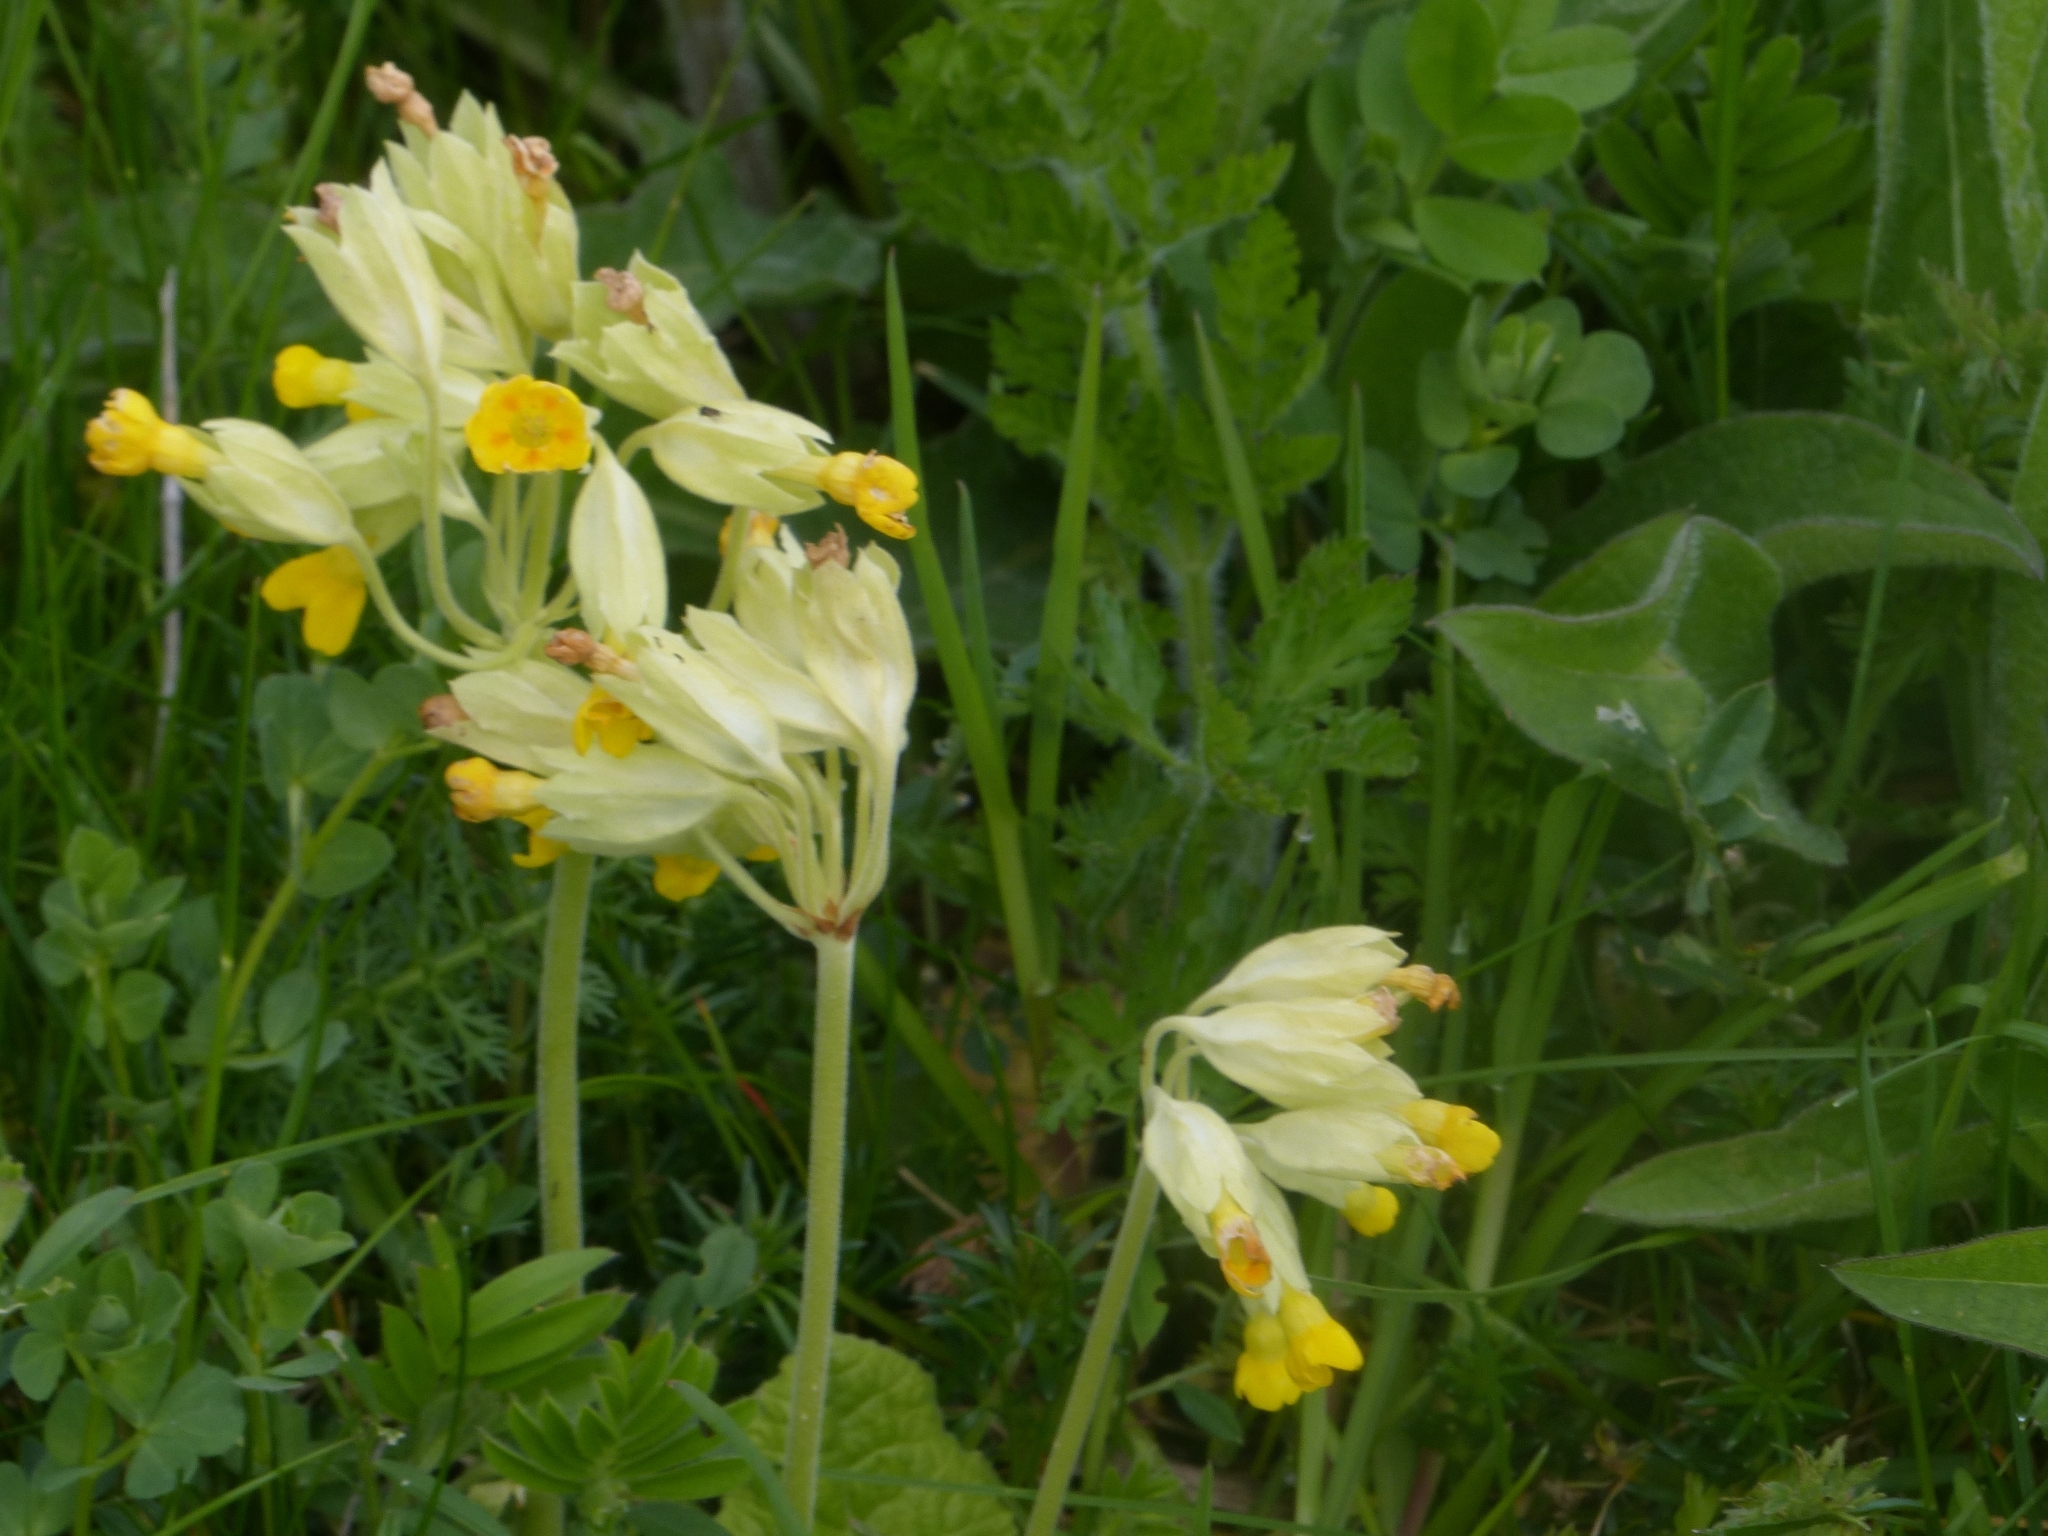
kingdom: Plantae
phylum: Tracheophyta
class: Magnoliopsida
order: Ericales
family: Primulaceae
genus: Primula
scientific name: Primula veris
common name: Cowslip
